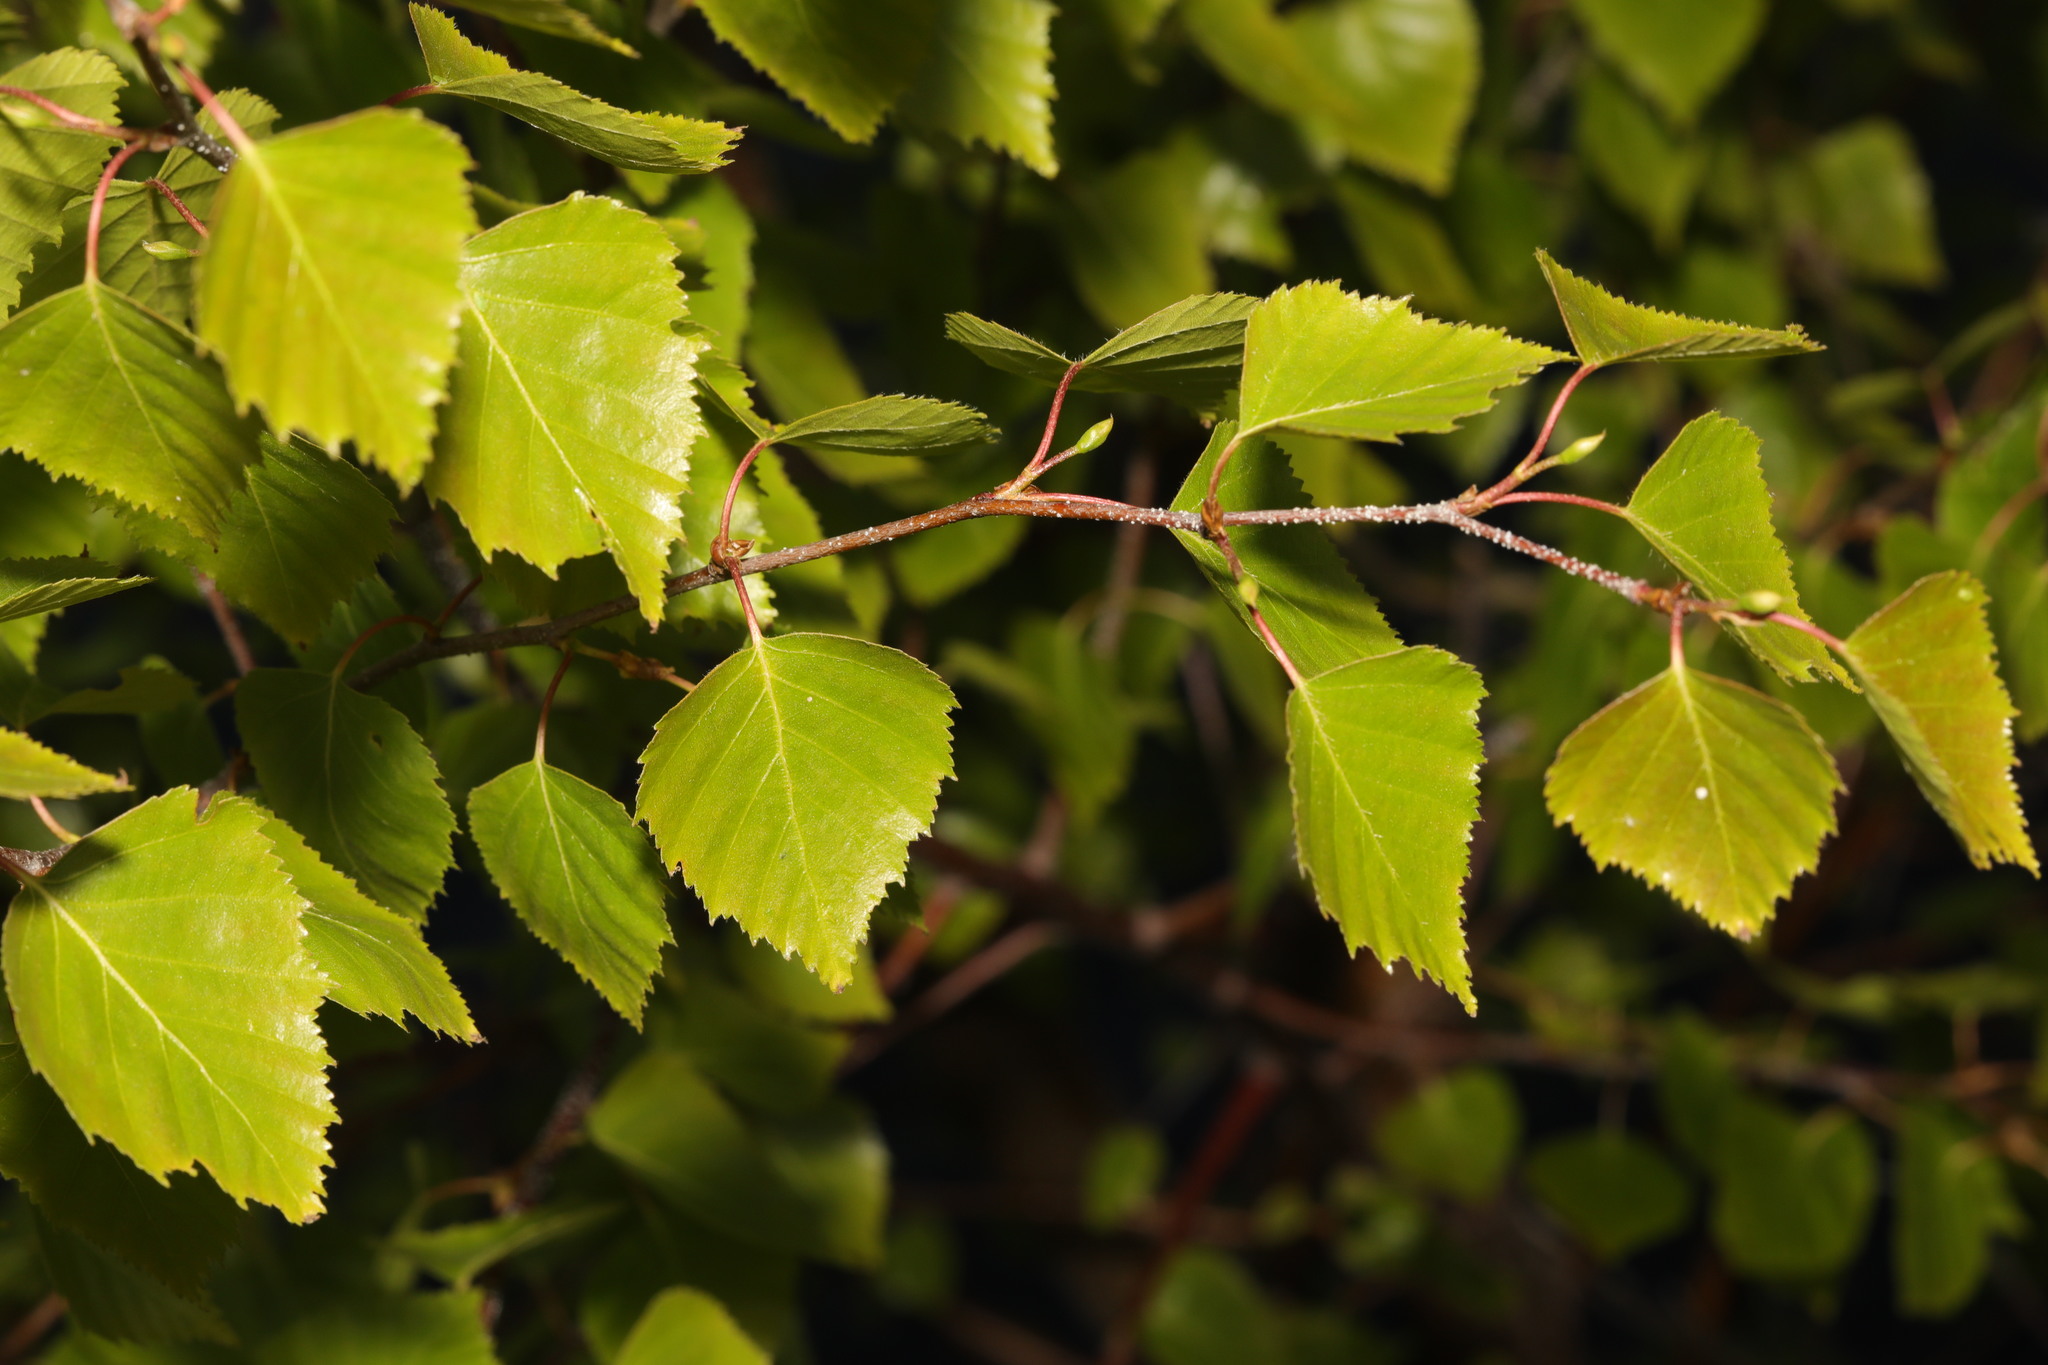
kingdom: Plantae
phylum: Tracheophyta
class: Magnoliopsida
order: Fagales
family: Betulaceae
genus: Betula
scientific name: Betula pendula
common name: Silver birch
